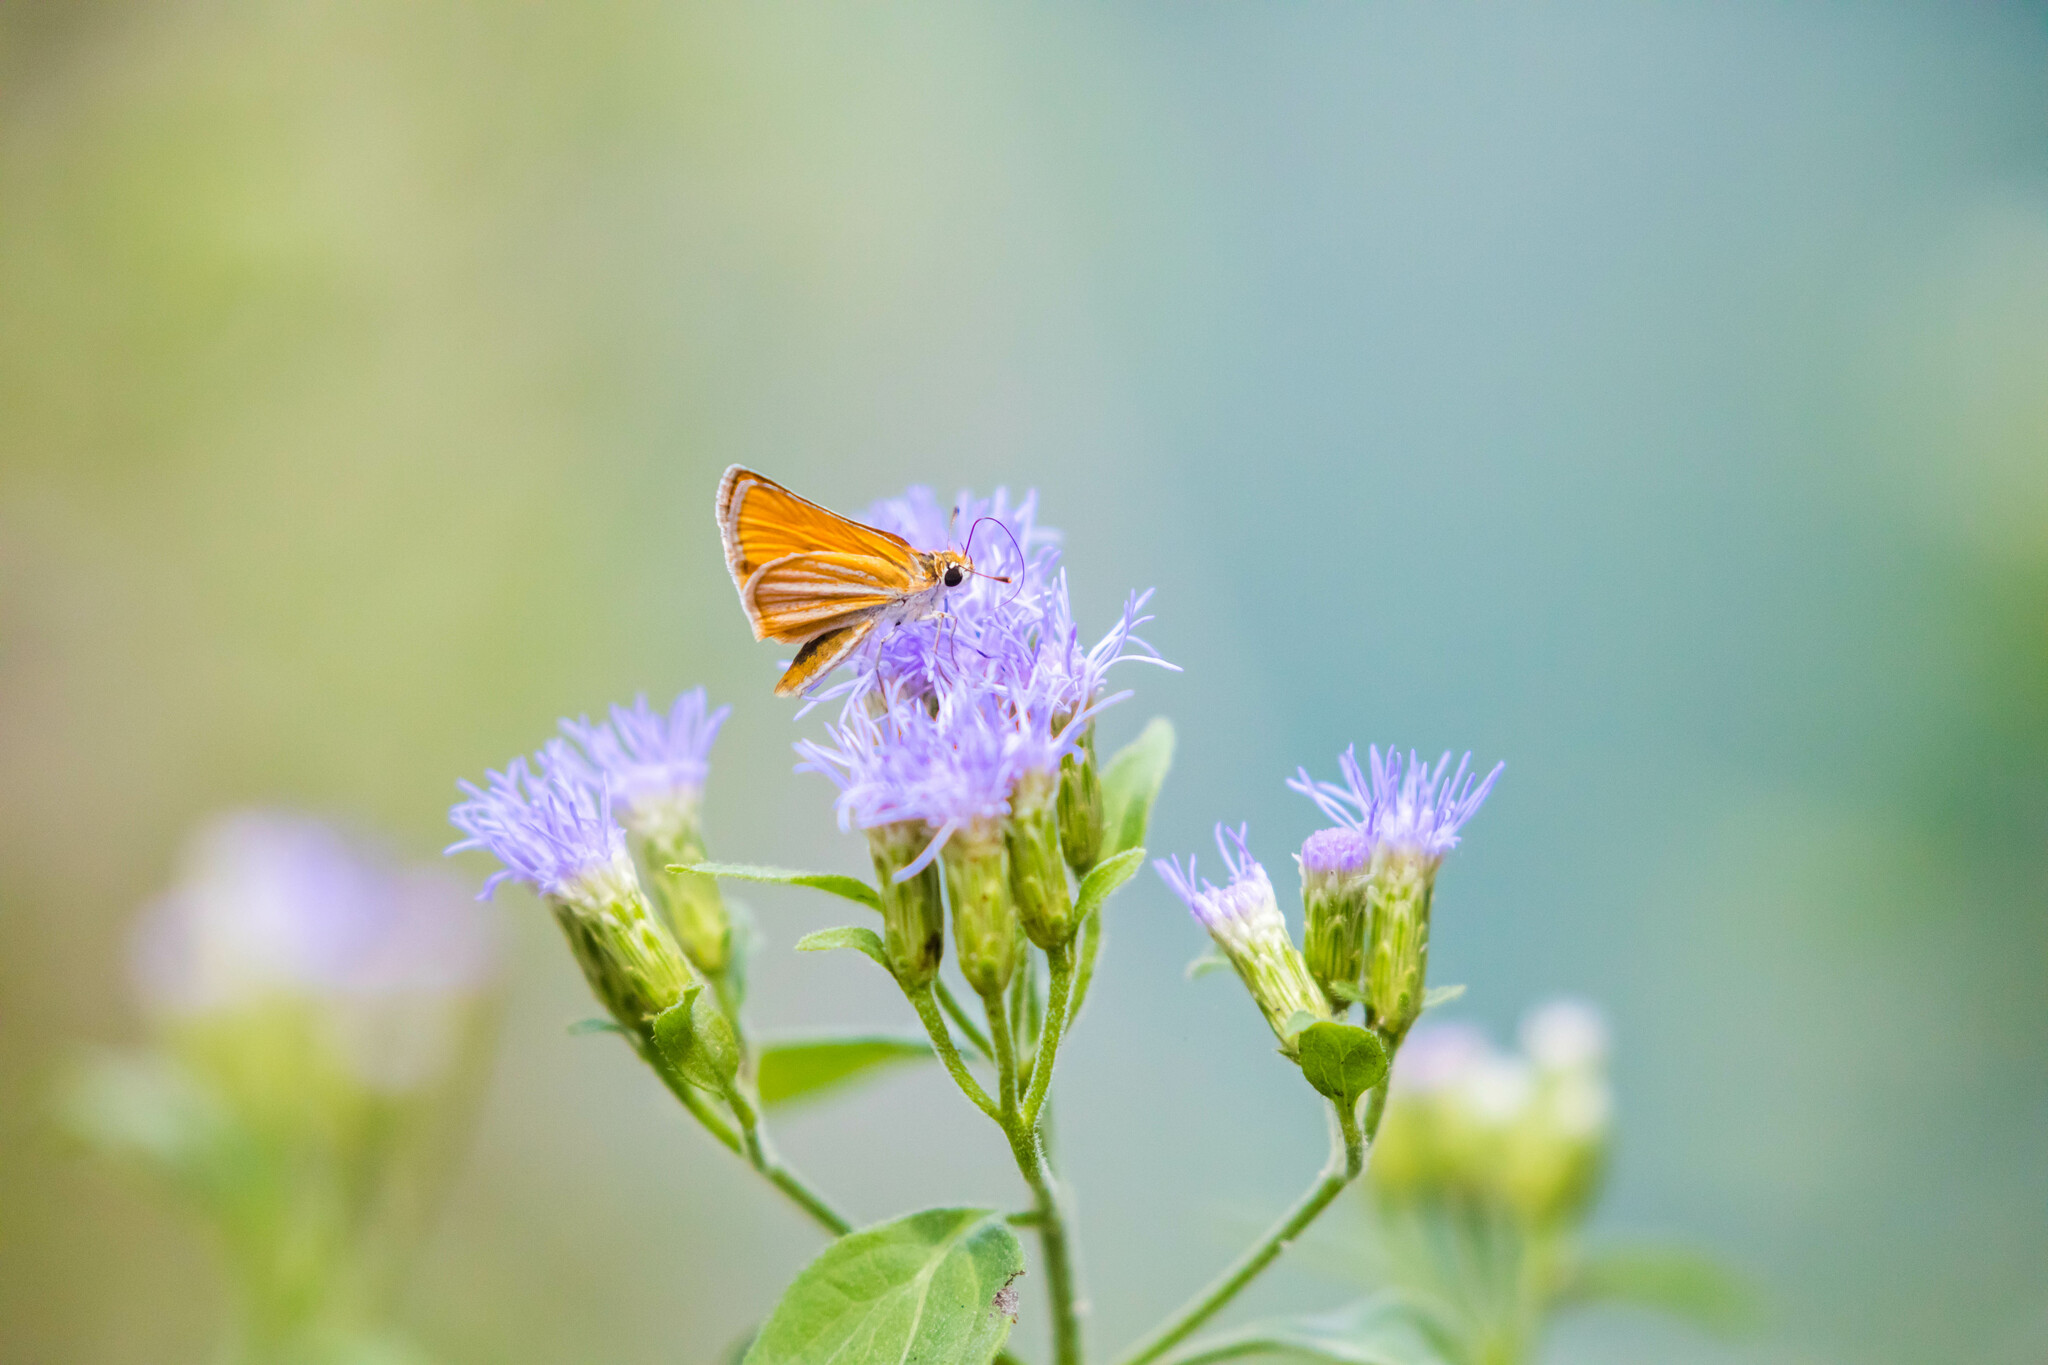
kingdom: Animalia
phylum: Arthropoda
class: Insecta
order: Lepidoptera
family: Hesperiidae
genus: Copaeodes
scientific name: Copaeodes minima
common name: Southern skipperling
